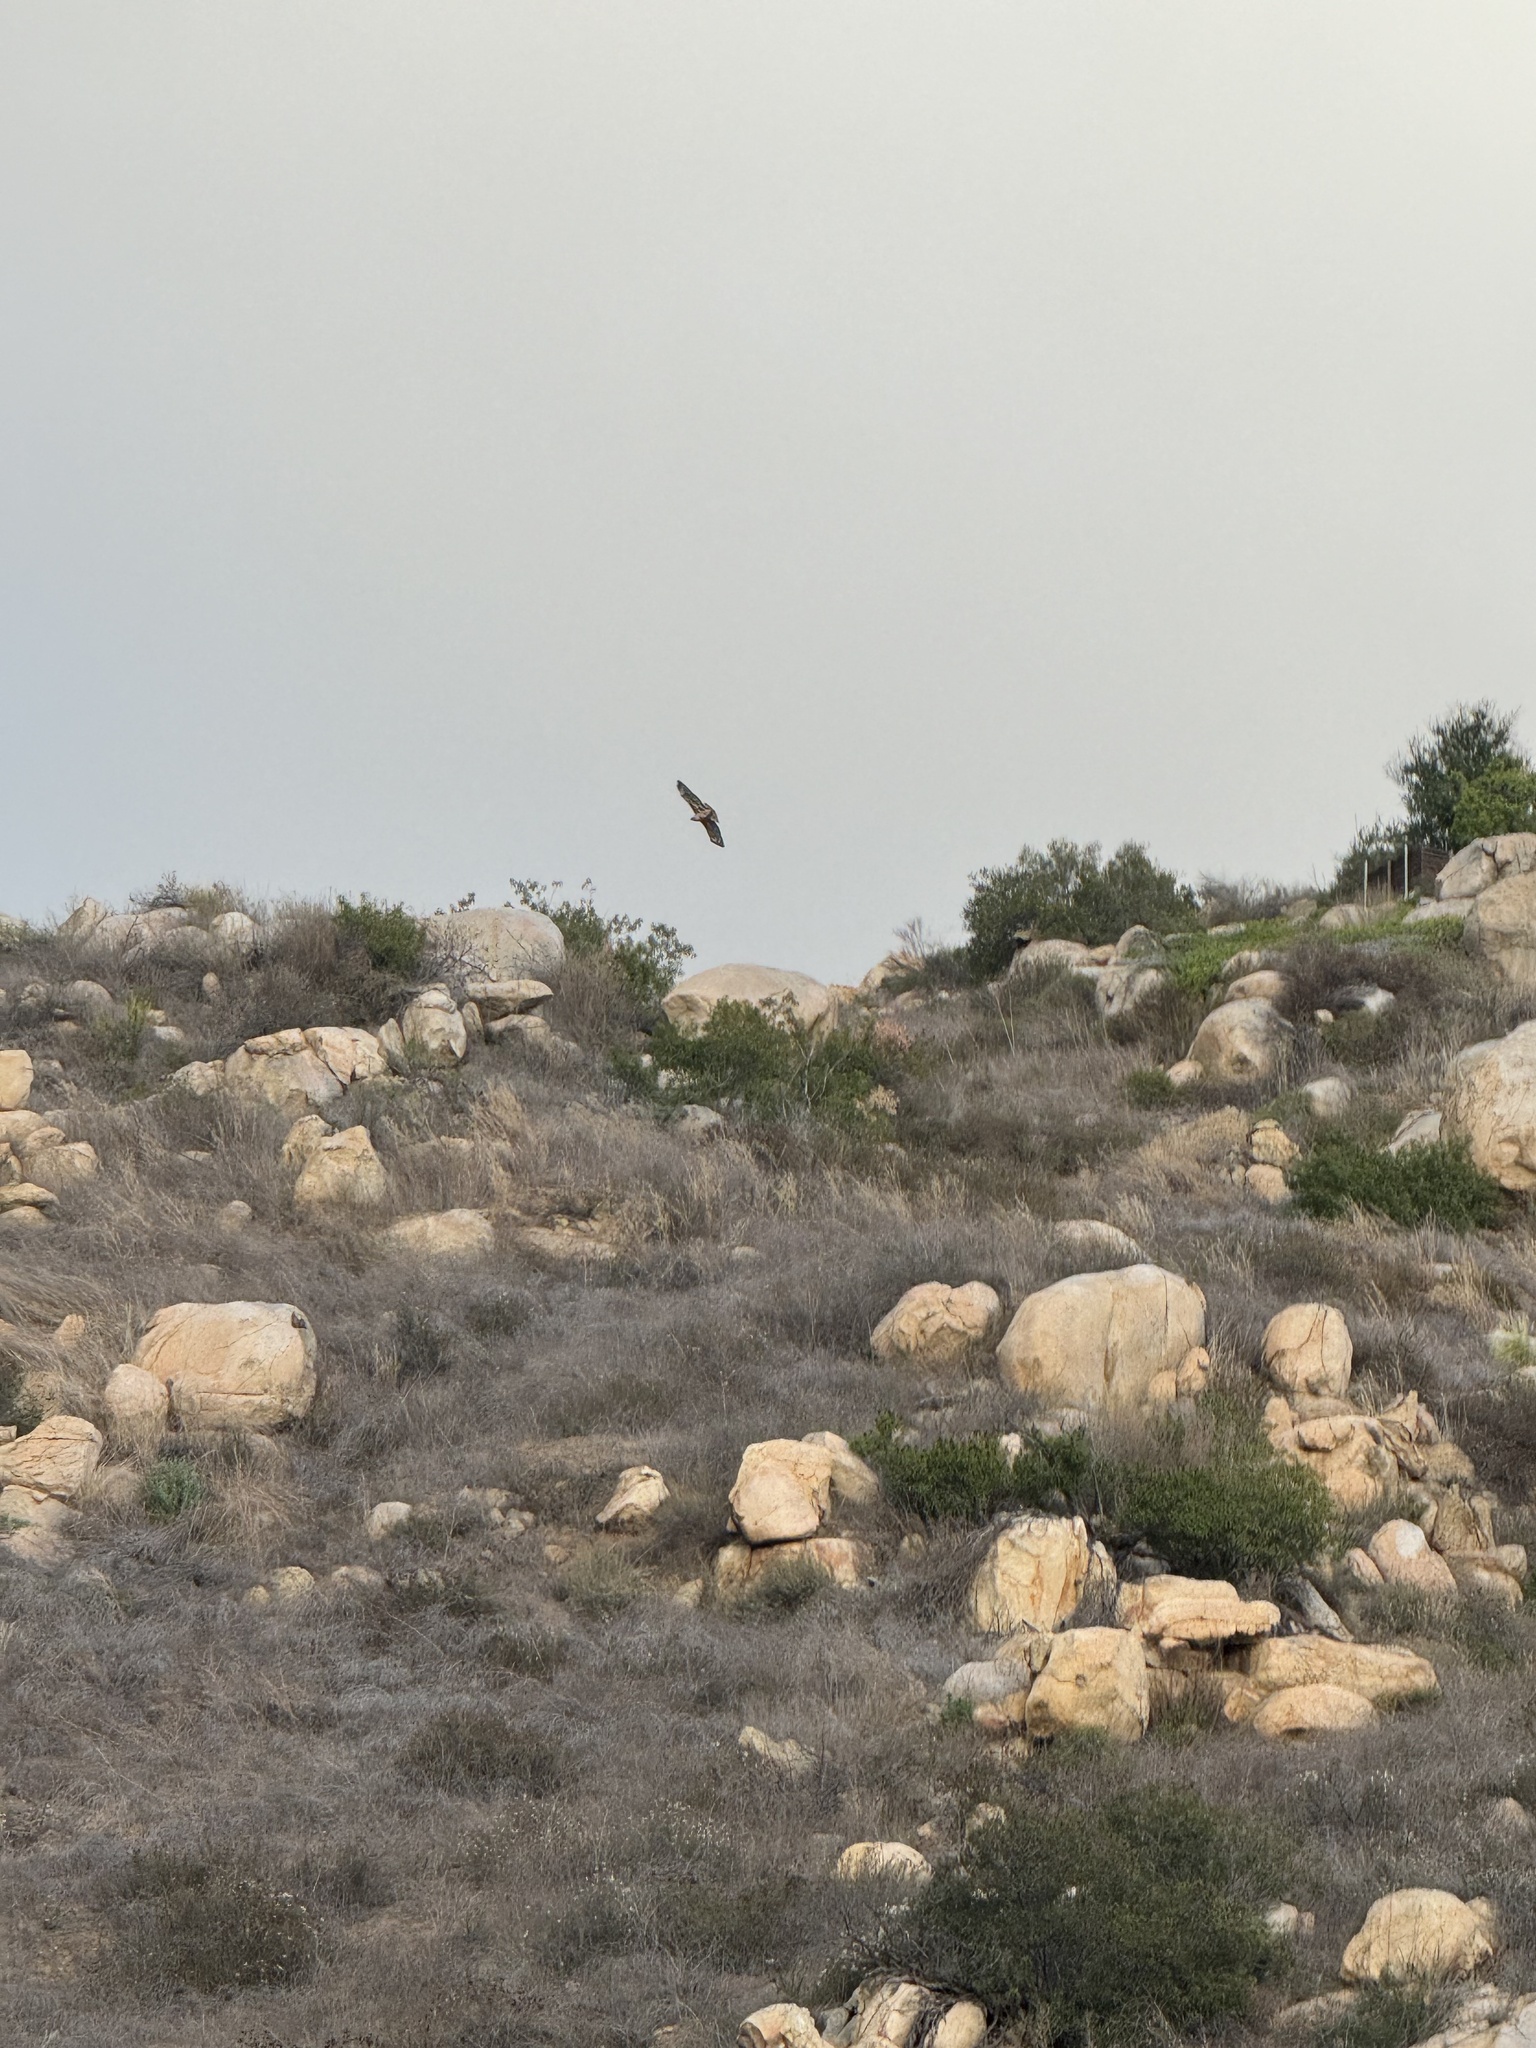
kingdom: Animalia
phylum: Chordata
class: Aves
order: Accipitriformes
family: Accipitridae
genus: Buteo
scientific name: Buteo jamaicensis
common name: Red-tailed hawk
